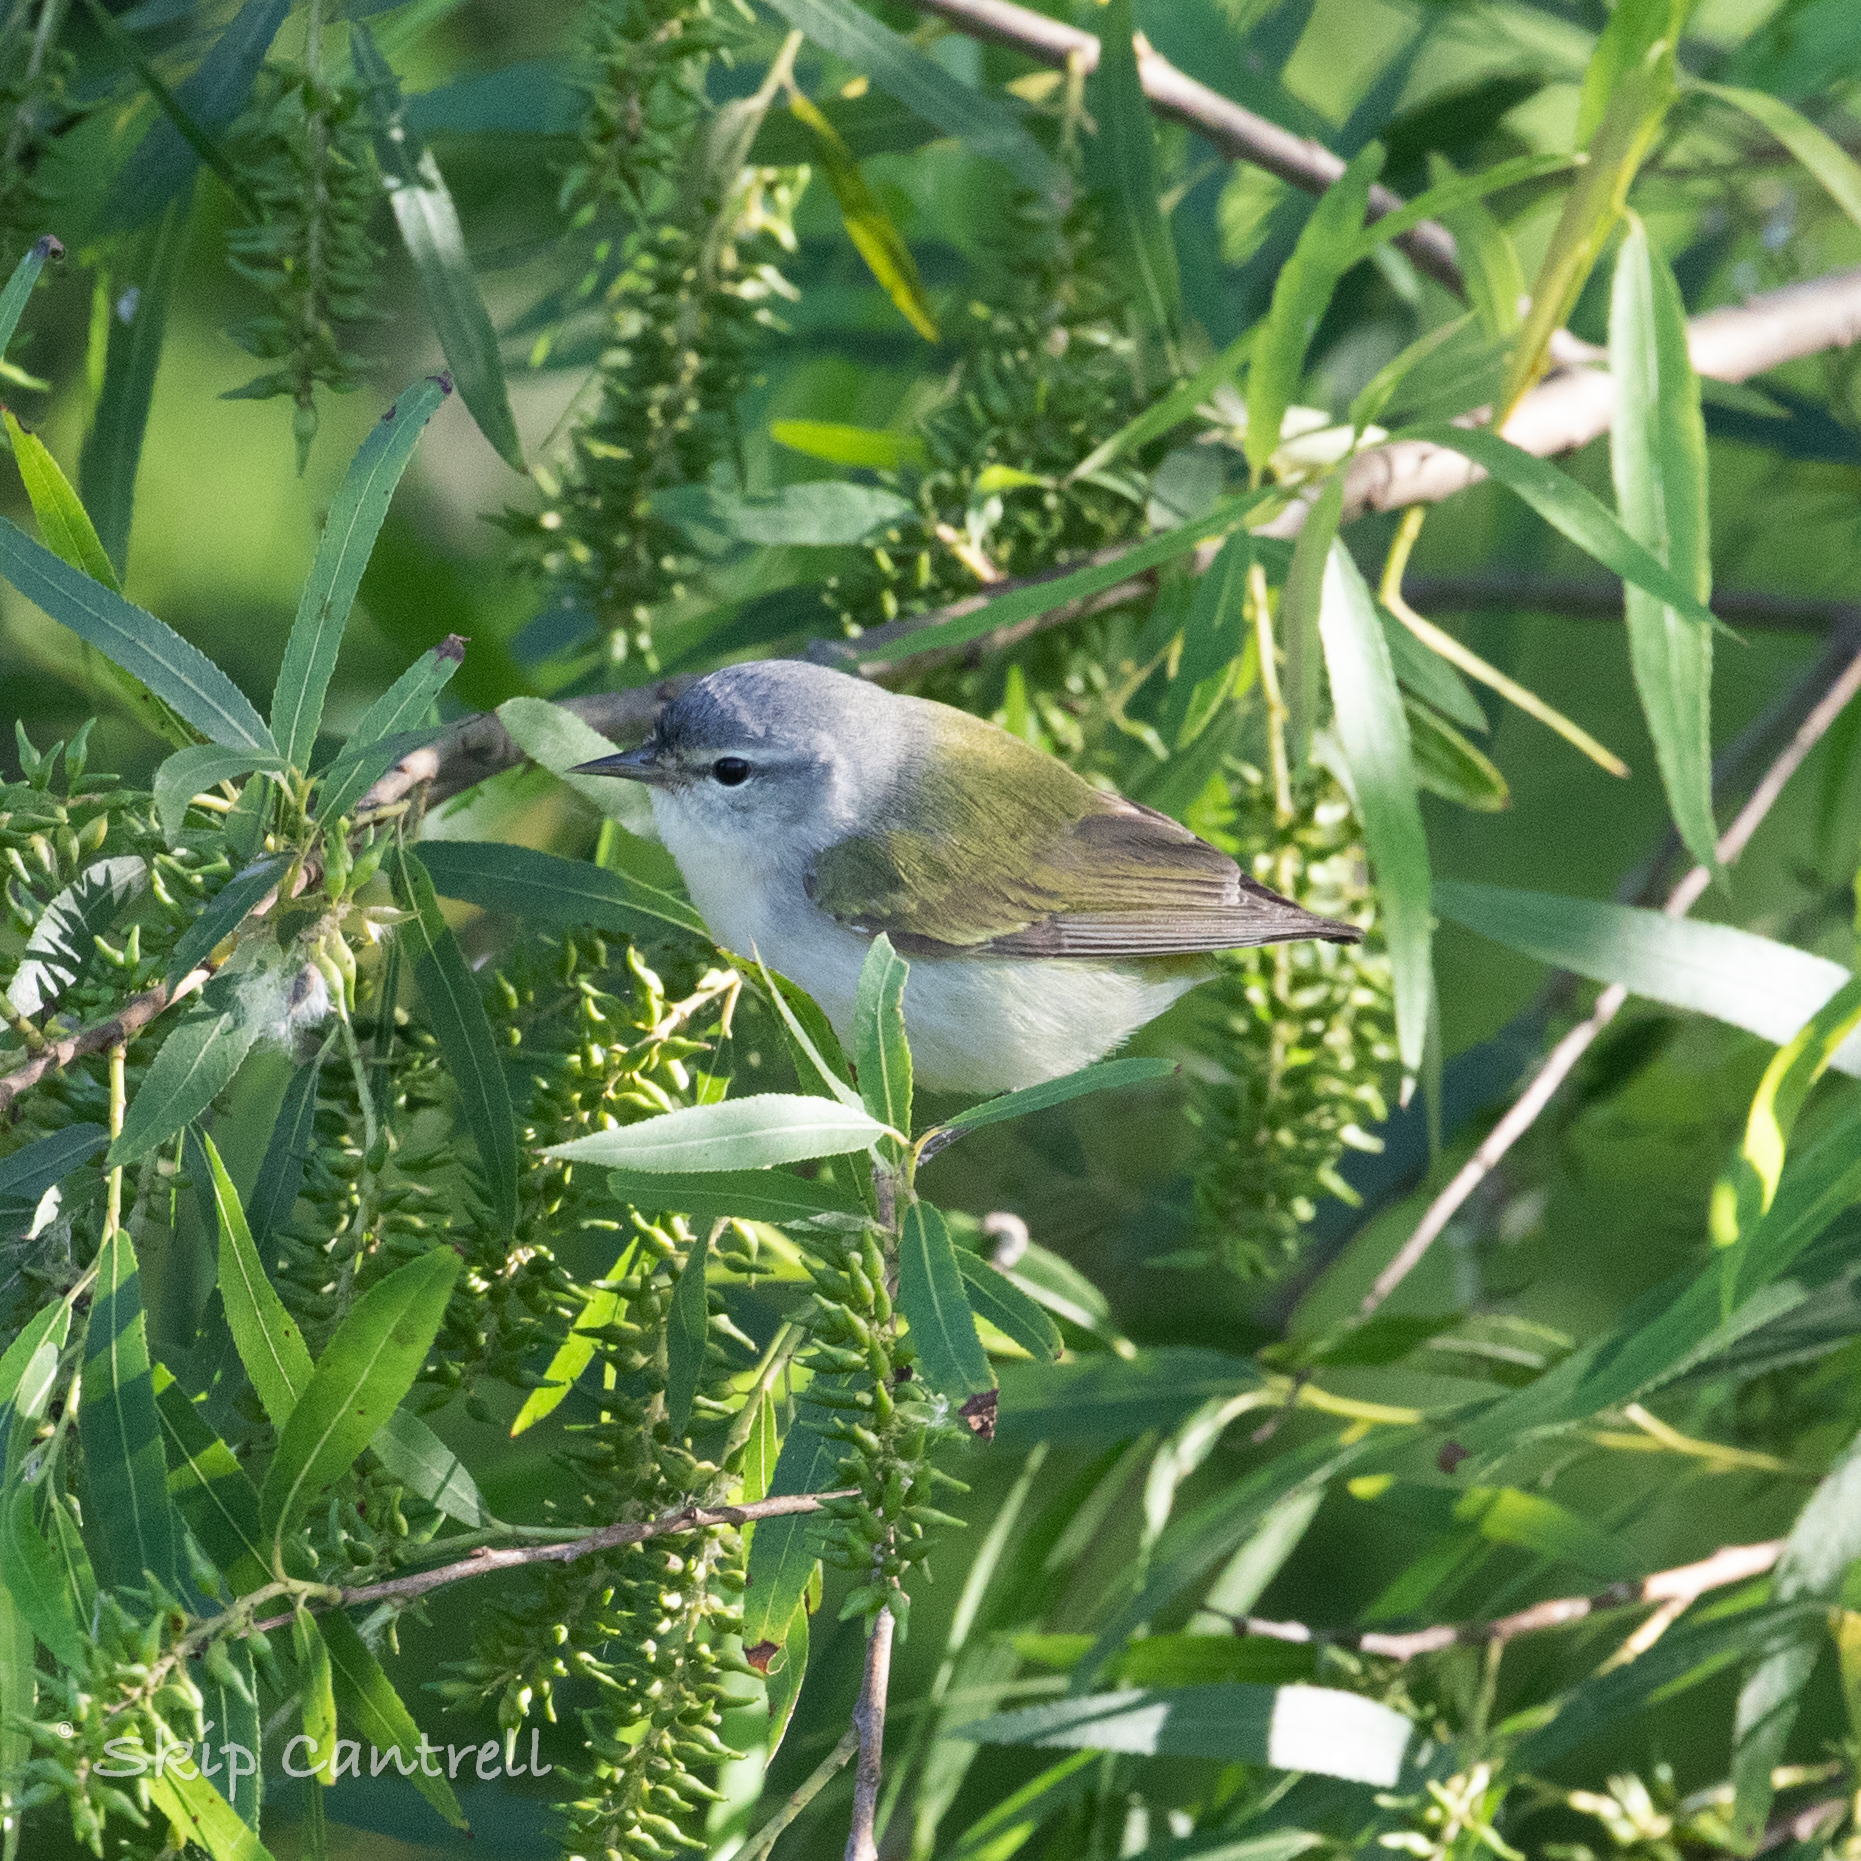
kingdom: Animalia
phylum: Chordata
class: Aves
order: Passeriformes
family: Parulidae
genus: Leiothlypis
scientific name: Leiothlypis peregrina
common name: Tennessee warbler
